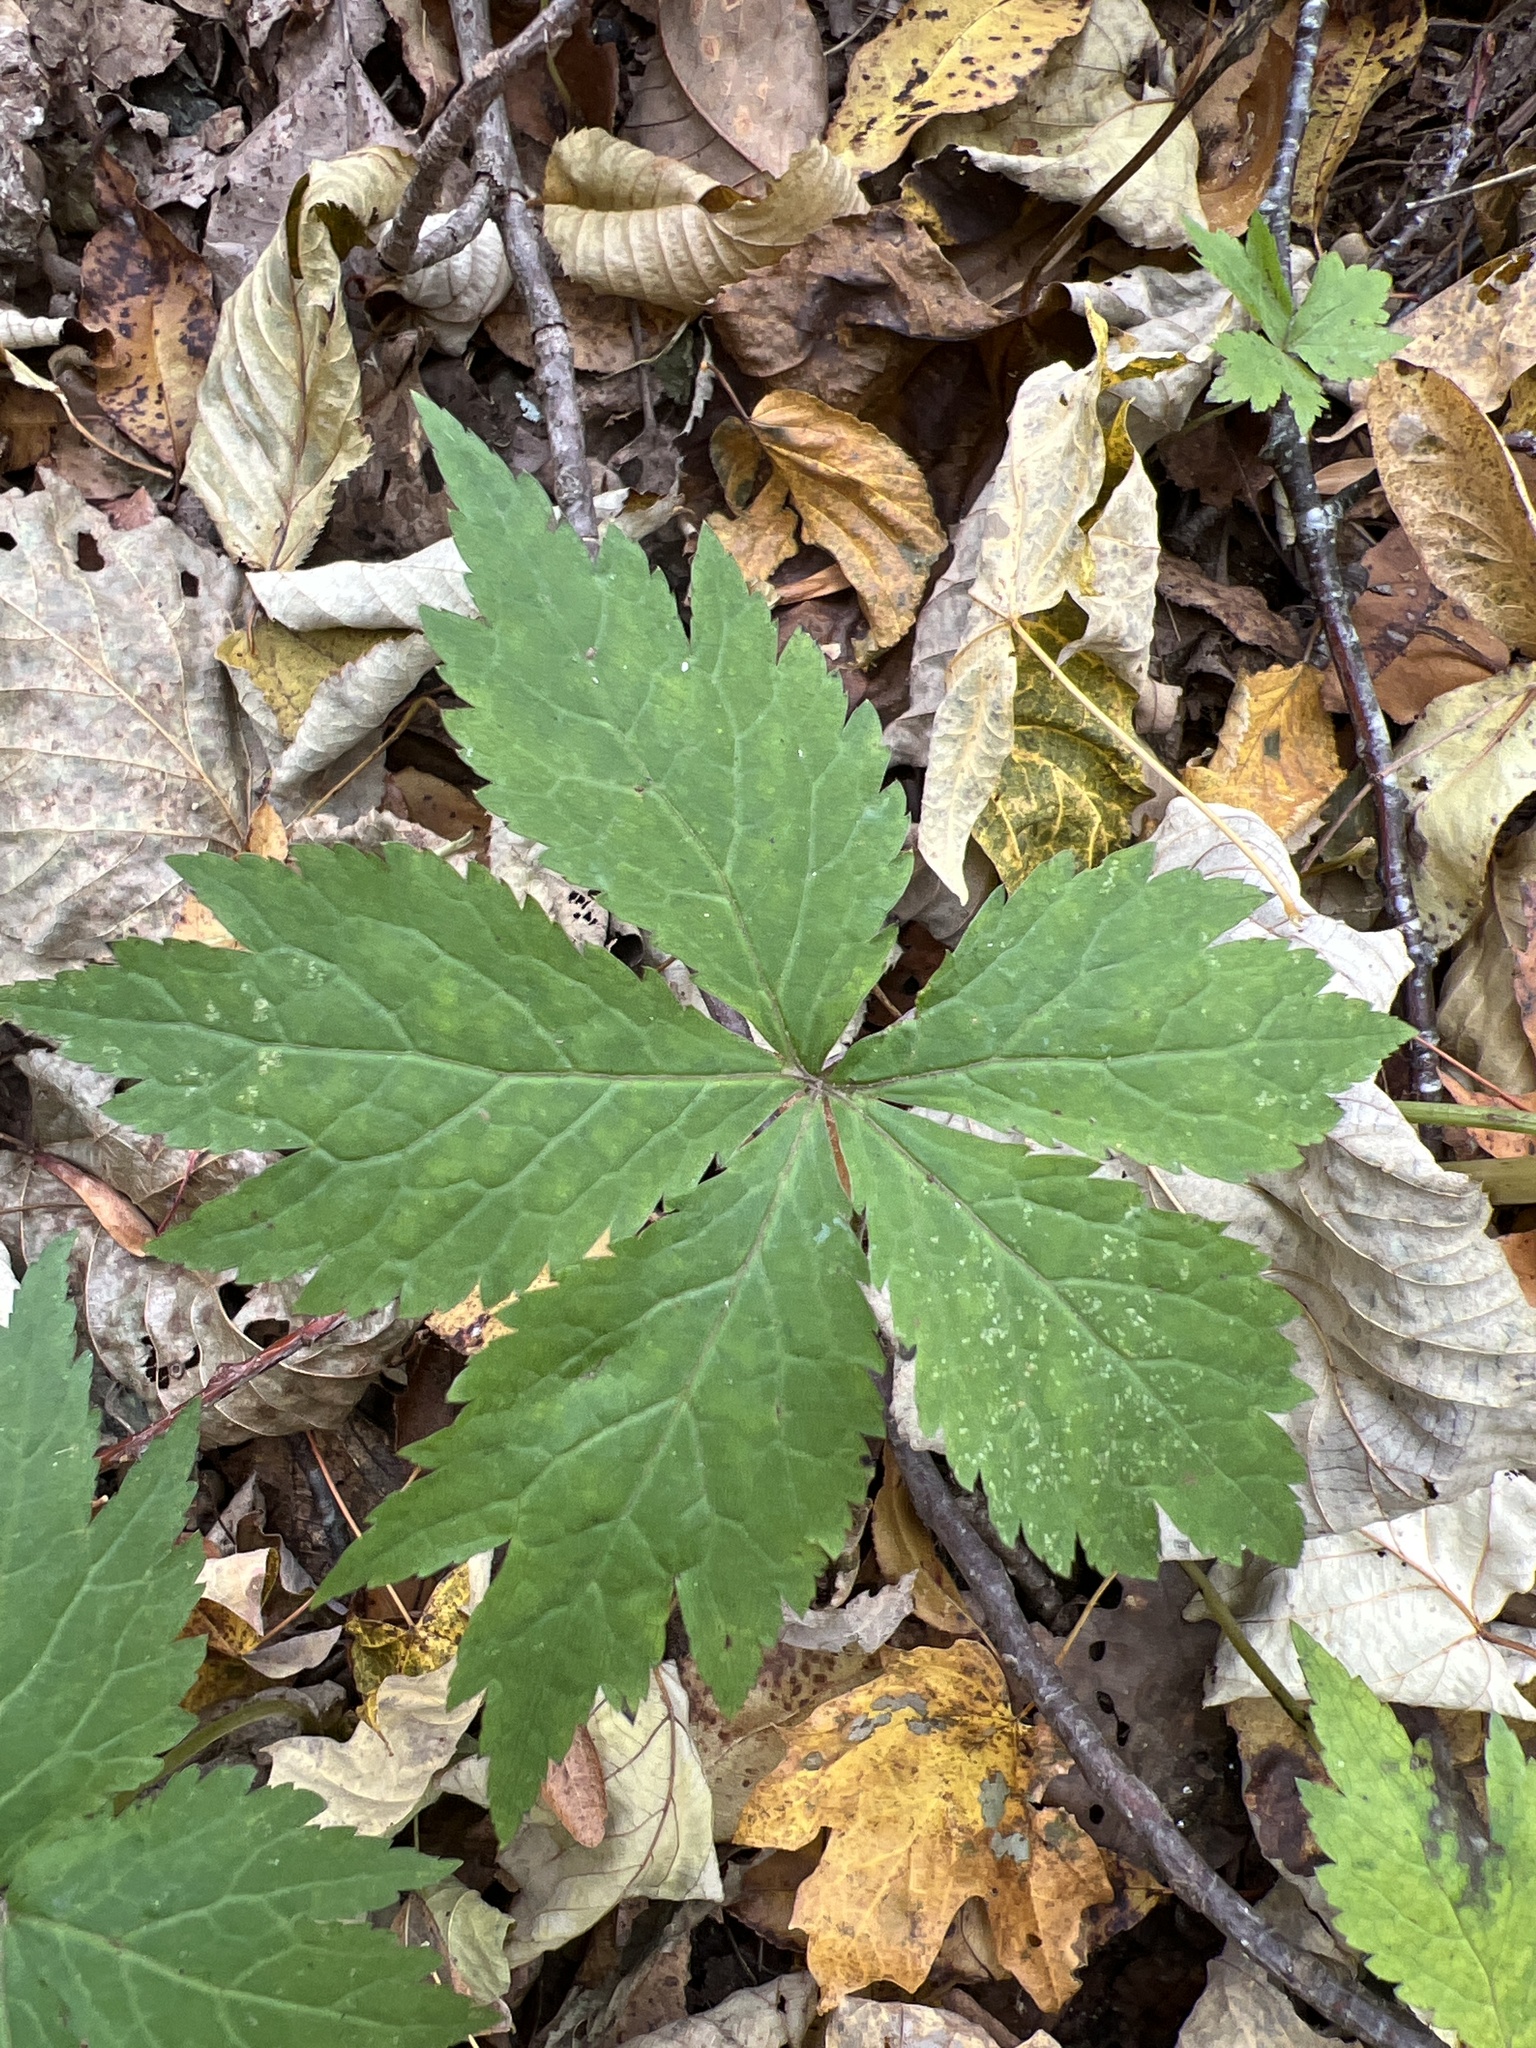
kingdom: Plantae
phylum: Tracheophyta
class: Magnoliopsida
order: Apiales
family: Apiaceae
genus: Sanicula
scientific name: Sanicula odorata
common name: Cluster sanicle
